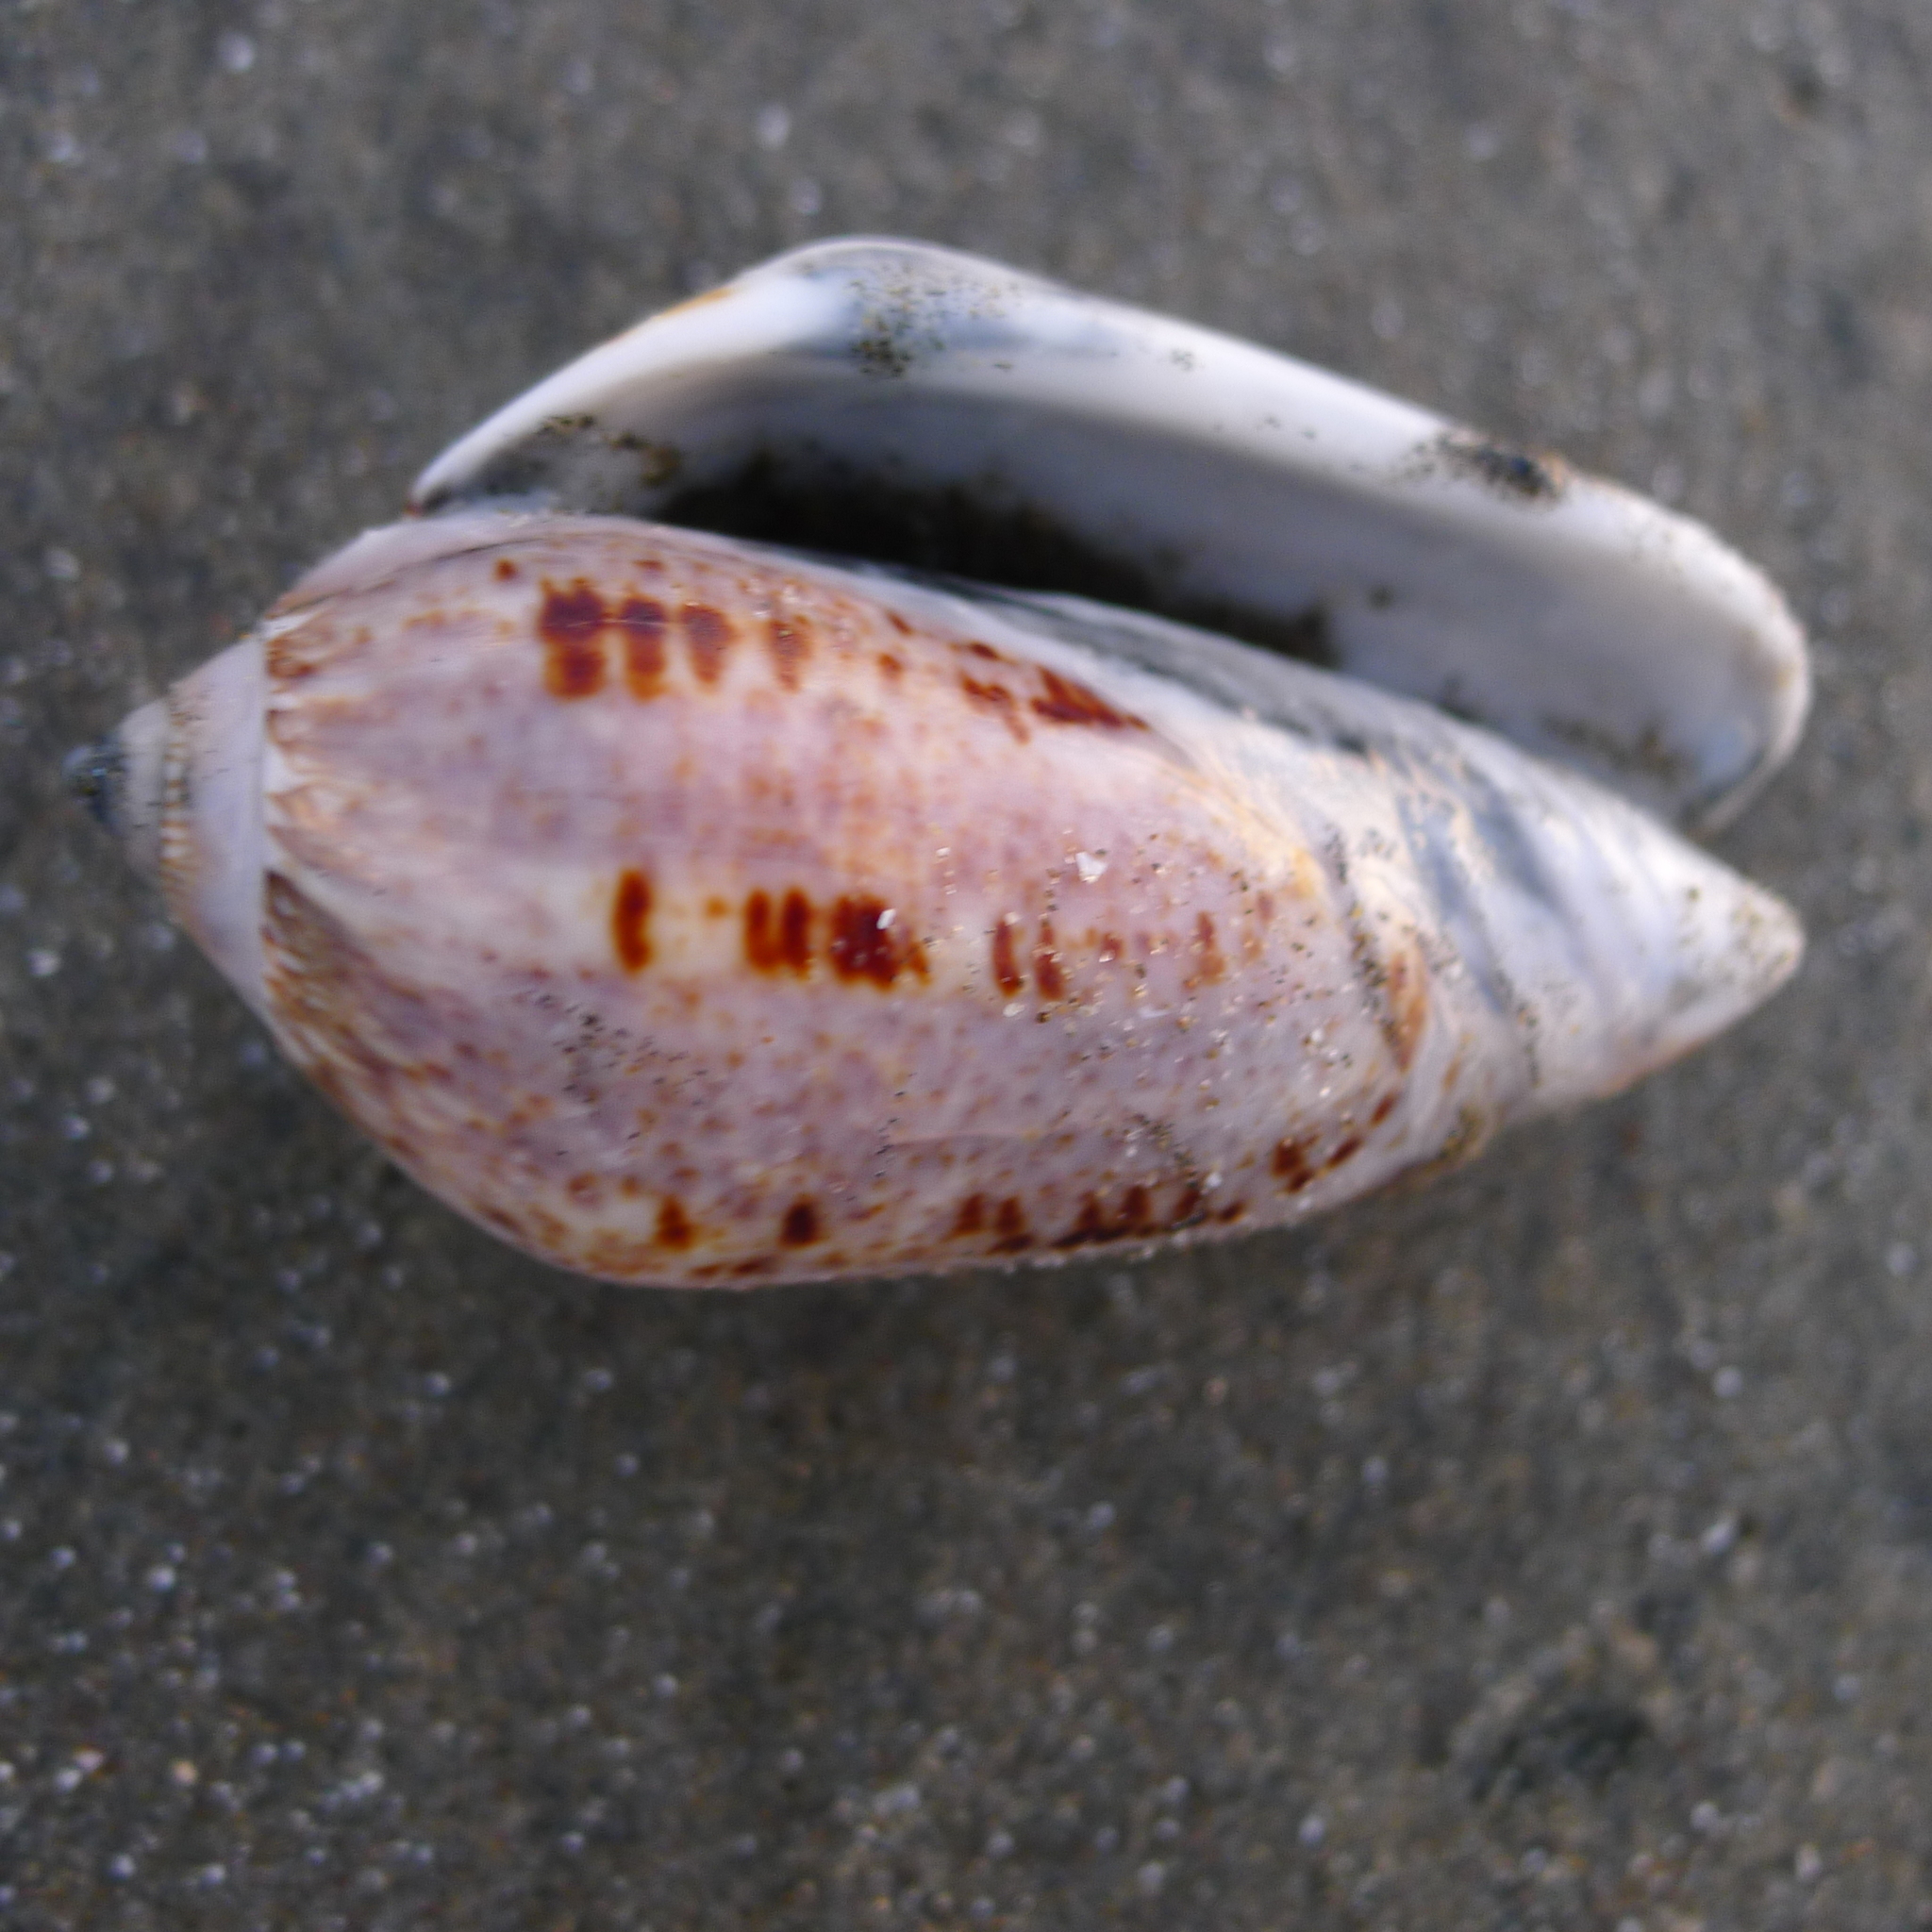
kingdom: Animalia
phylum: Mollusca
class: Gastropoda
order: Neogastropoda
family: Olividae
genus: Oliva
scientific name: Oliva incrassata
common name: Angled olive
